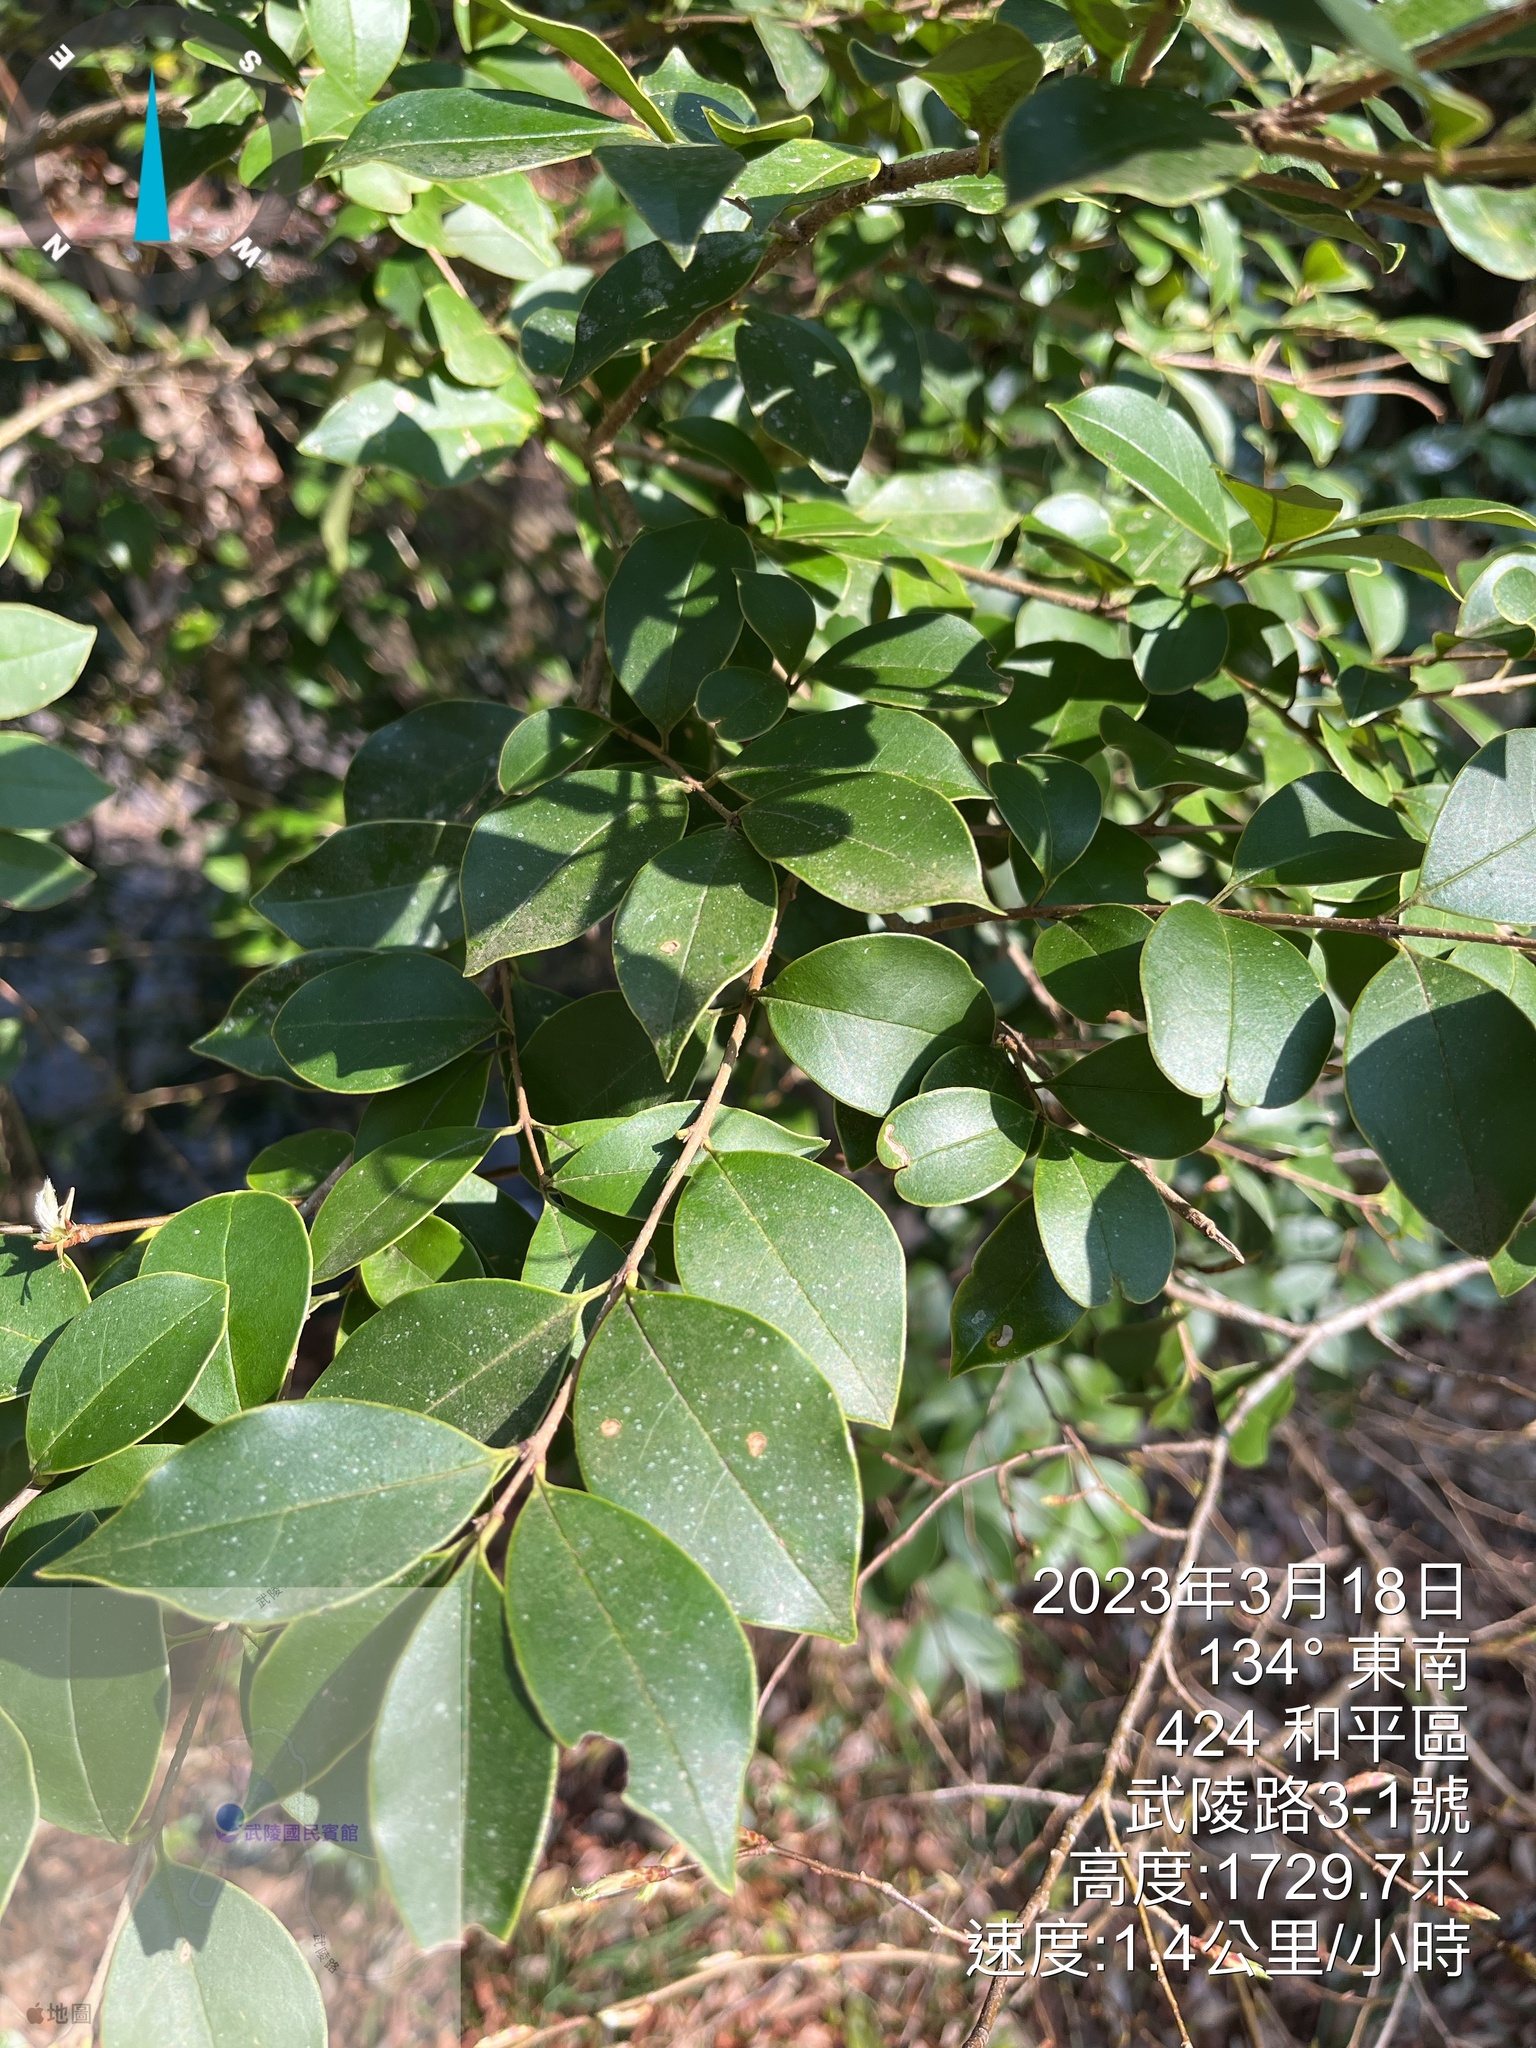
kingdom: Plantae
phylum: Tracheophyta
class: Magnoliopsida
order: Lamiales
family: Oleaceae
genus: Ligustrum
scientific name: Ligustrum liukiuense
